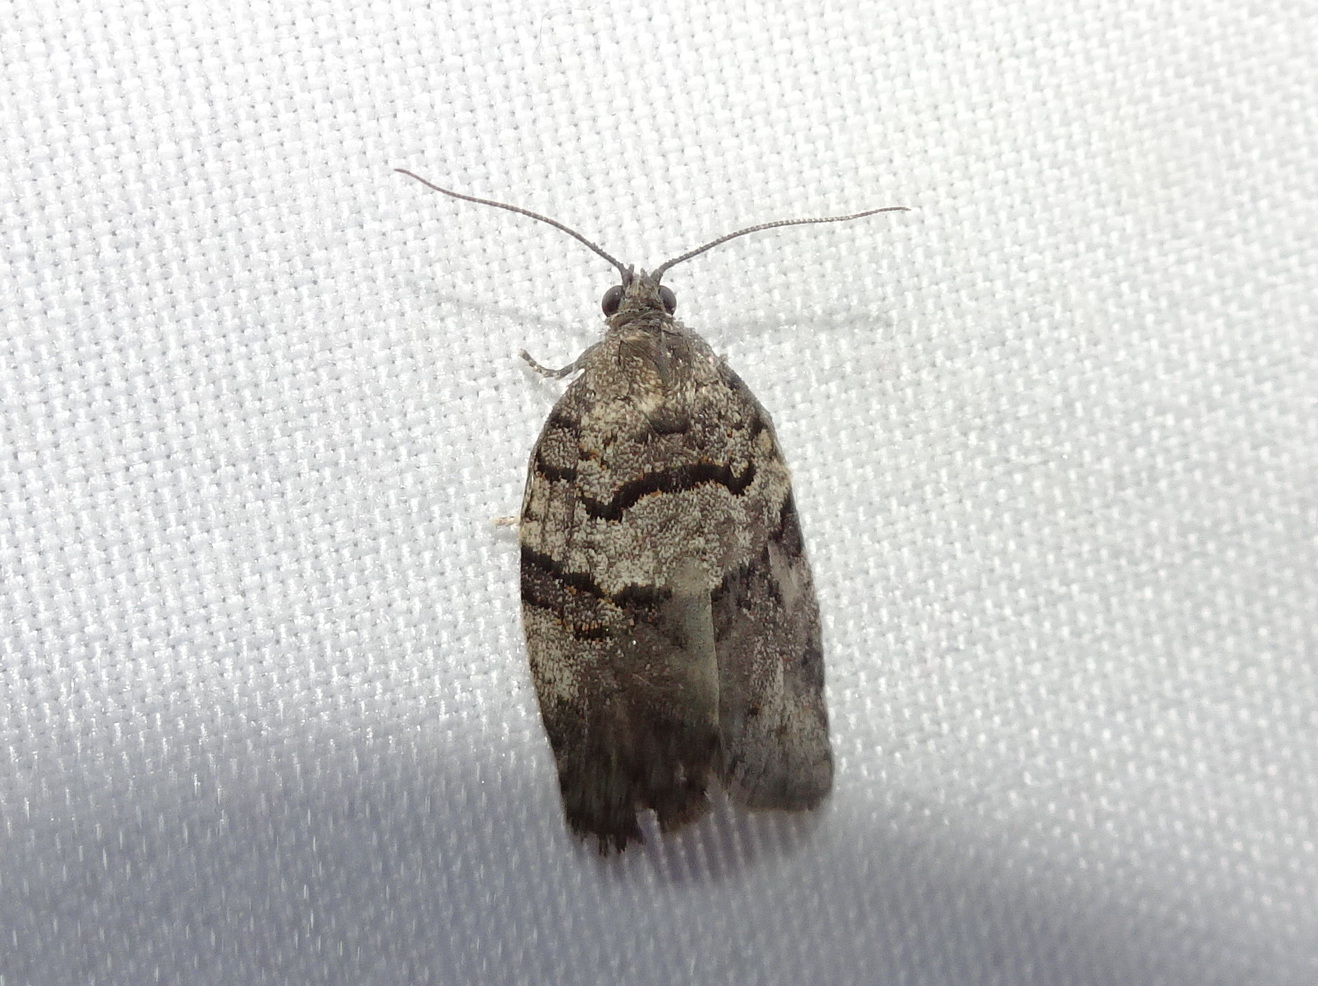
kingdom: Animalia
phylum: Arthropoda
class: Insecta
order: Lepidoptera
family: Tortricidae
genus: Syndemis
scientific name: Syndemis afflictana
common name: Gray leafroller moth
